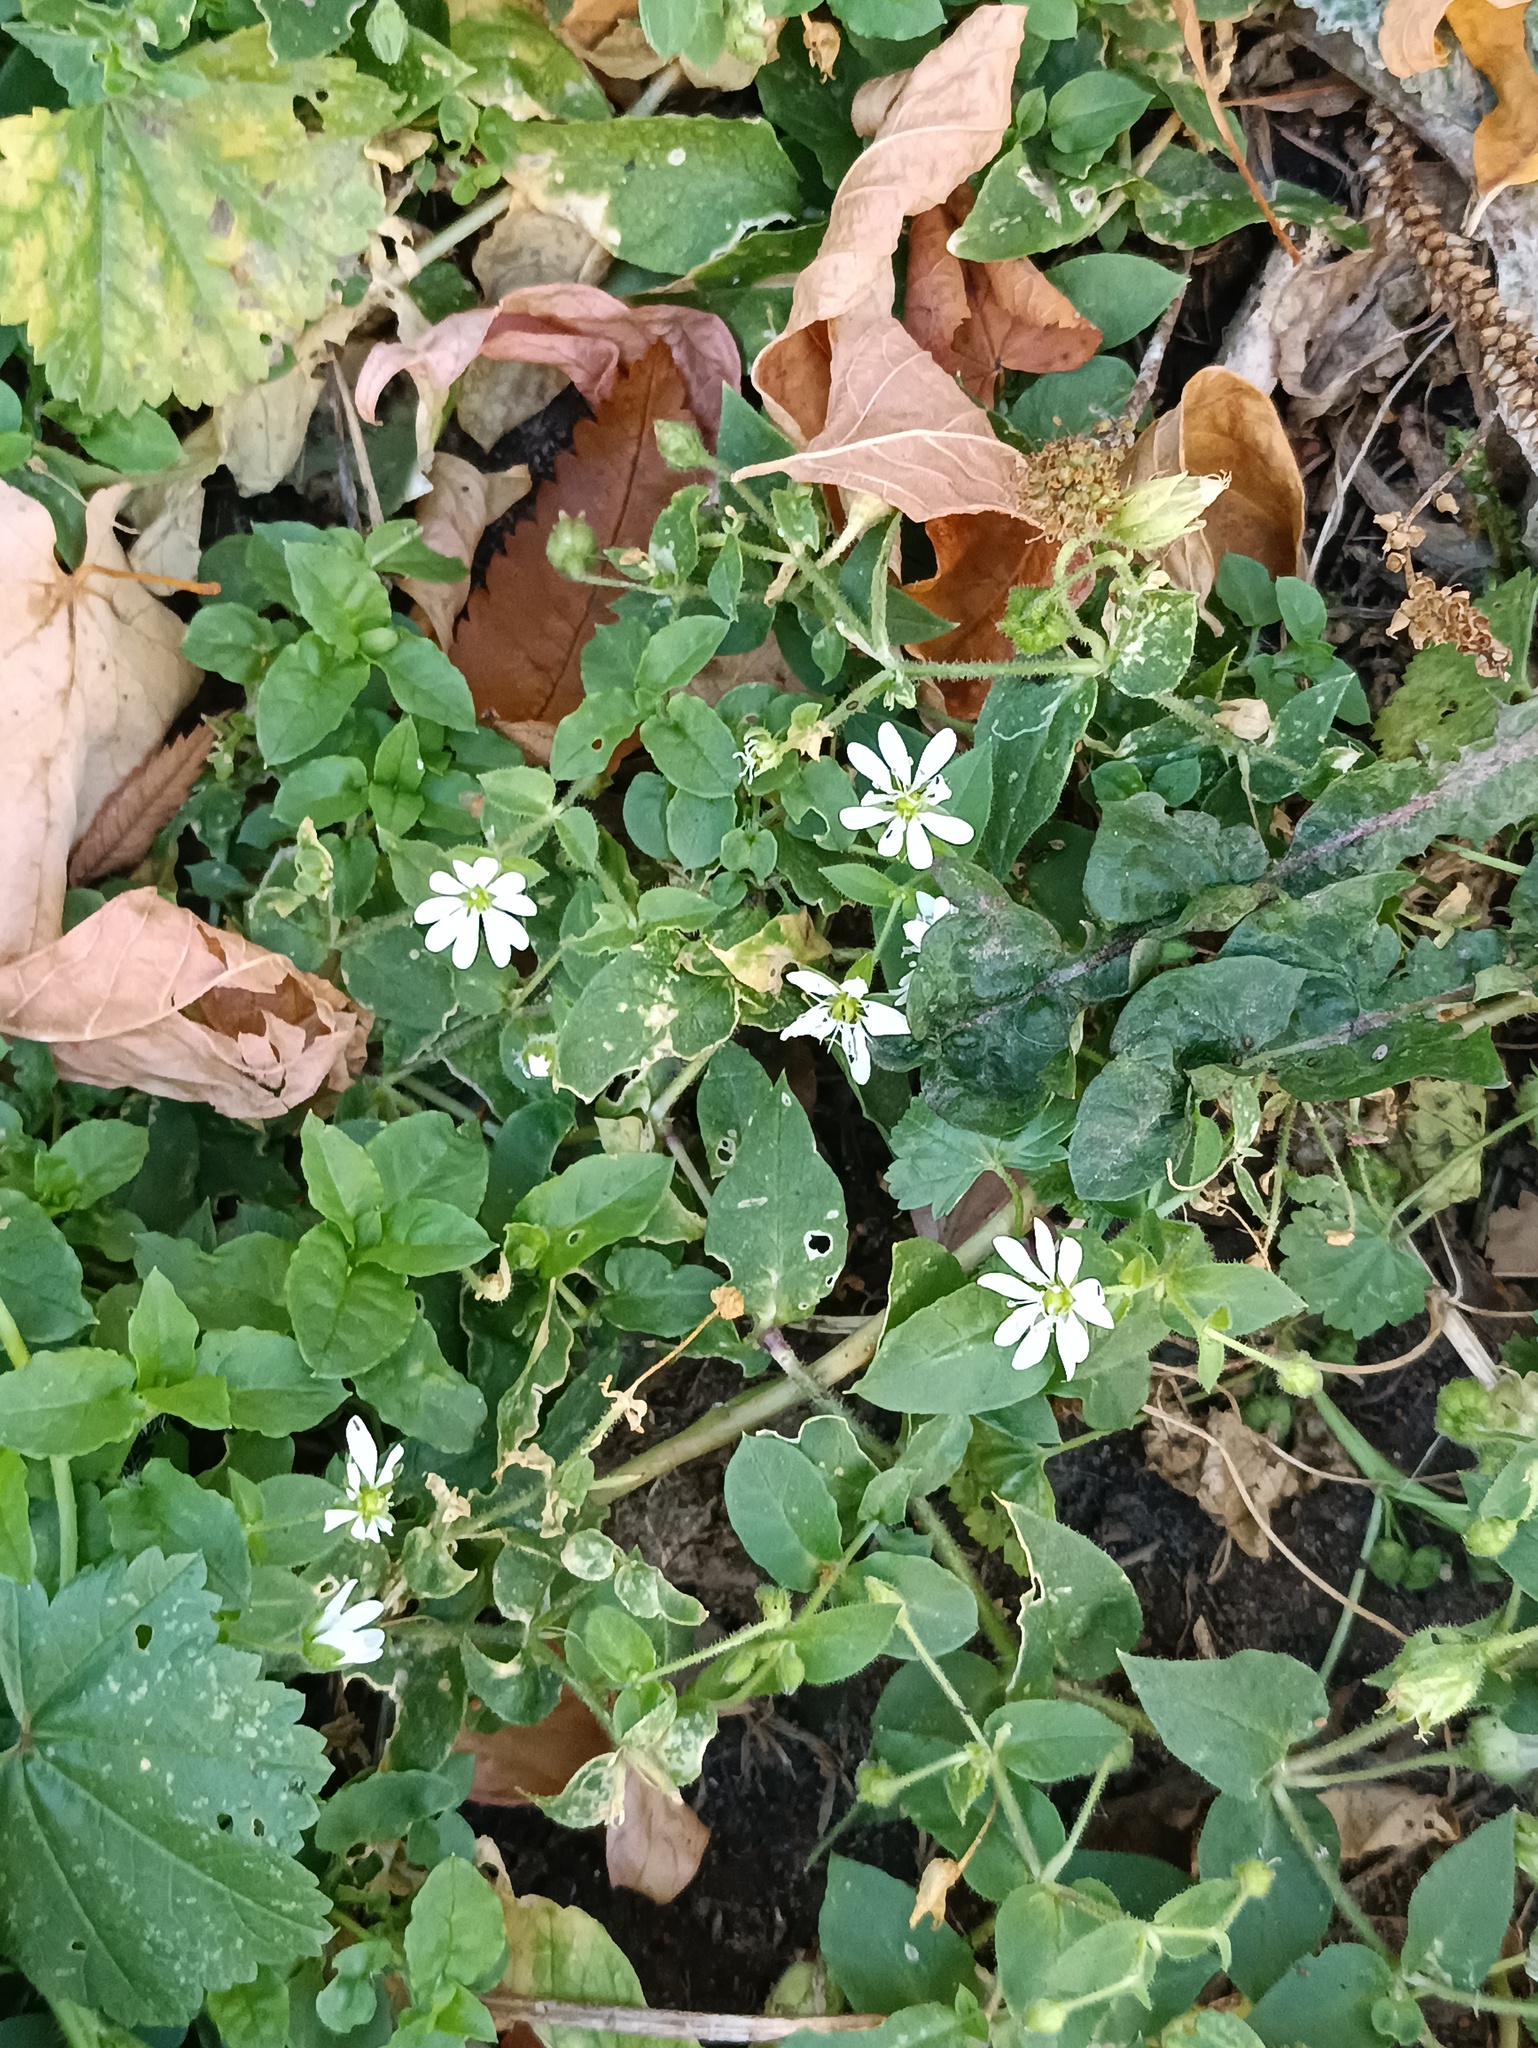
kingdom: Plantae
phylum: Tracheophyta
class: Magnoliopsida
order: Caryophyllales
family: Caryophyllaceae
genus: Stellaria
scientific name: Stellaria aquatica
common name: Water chickweed
